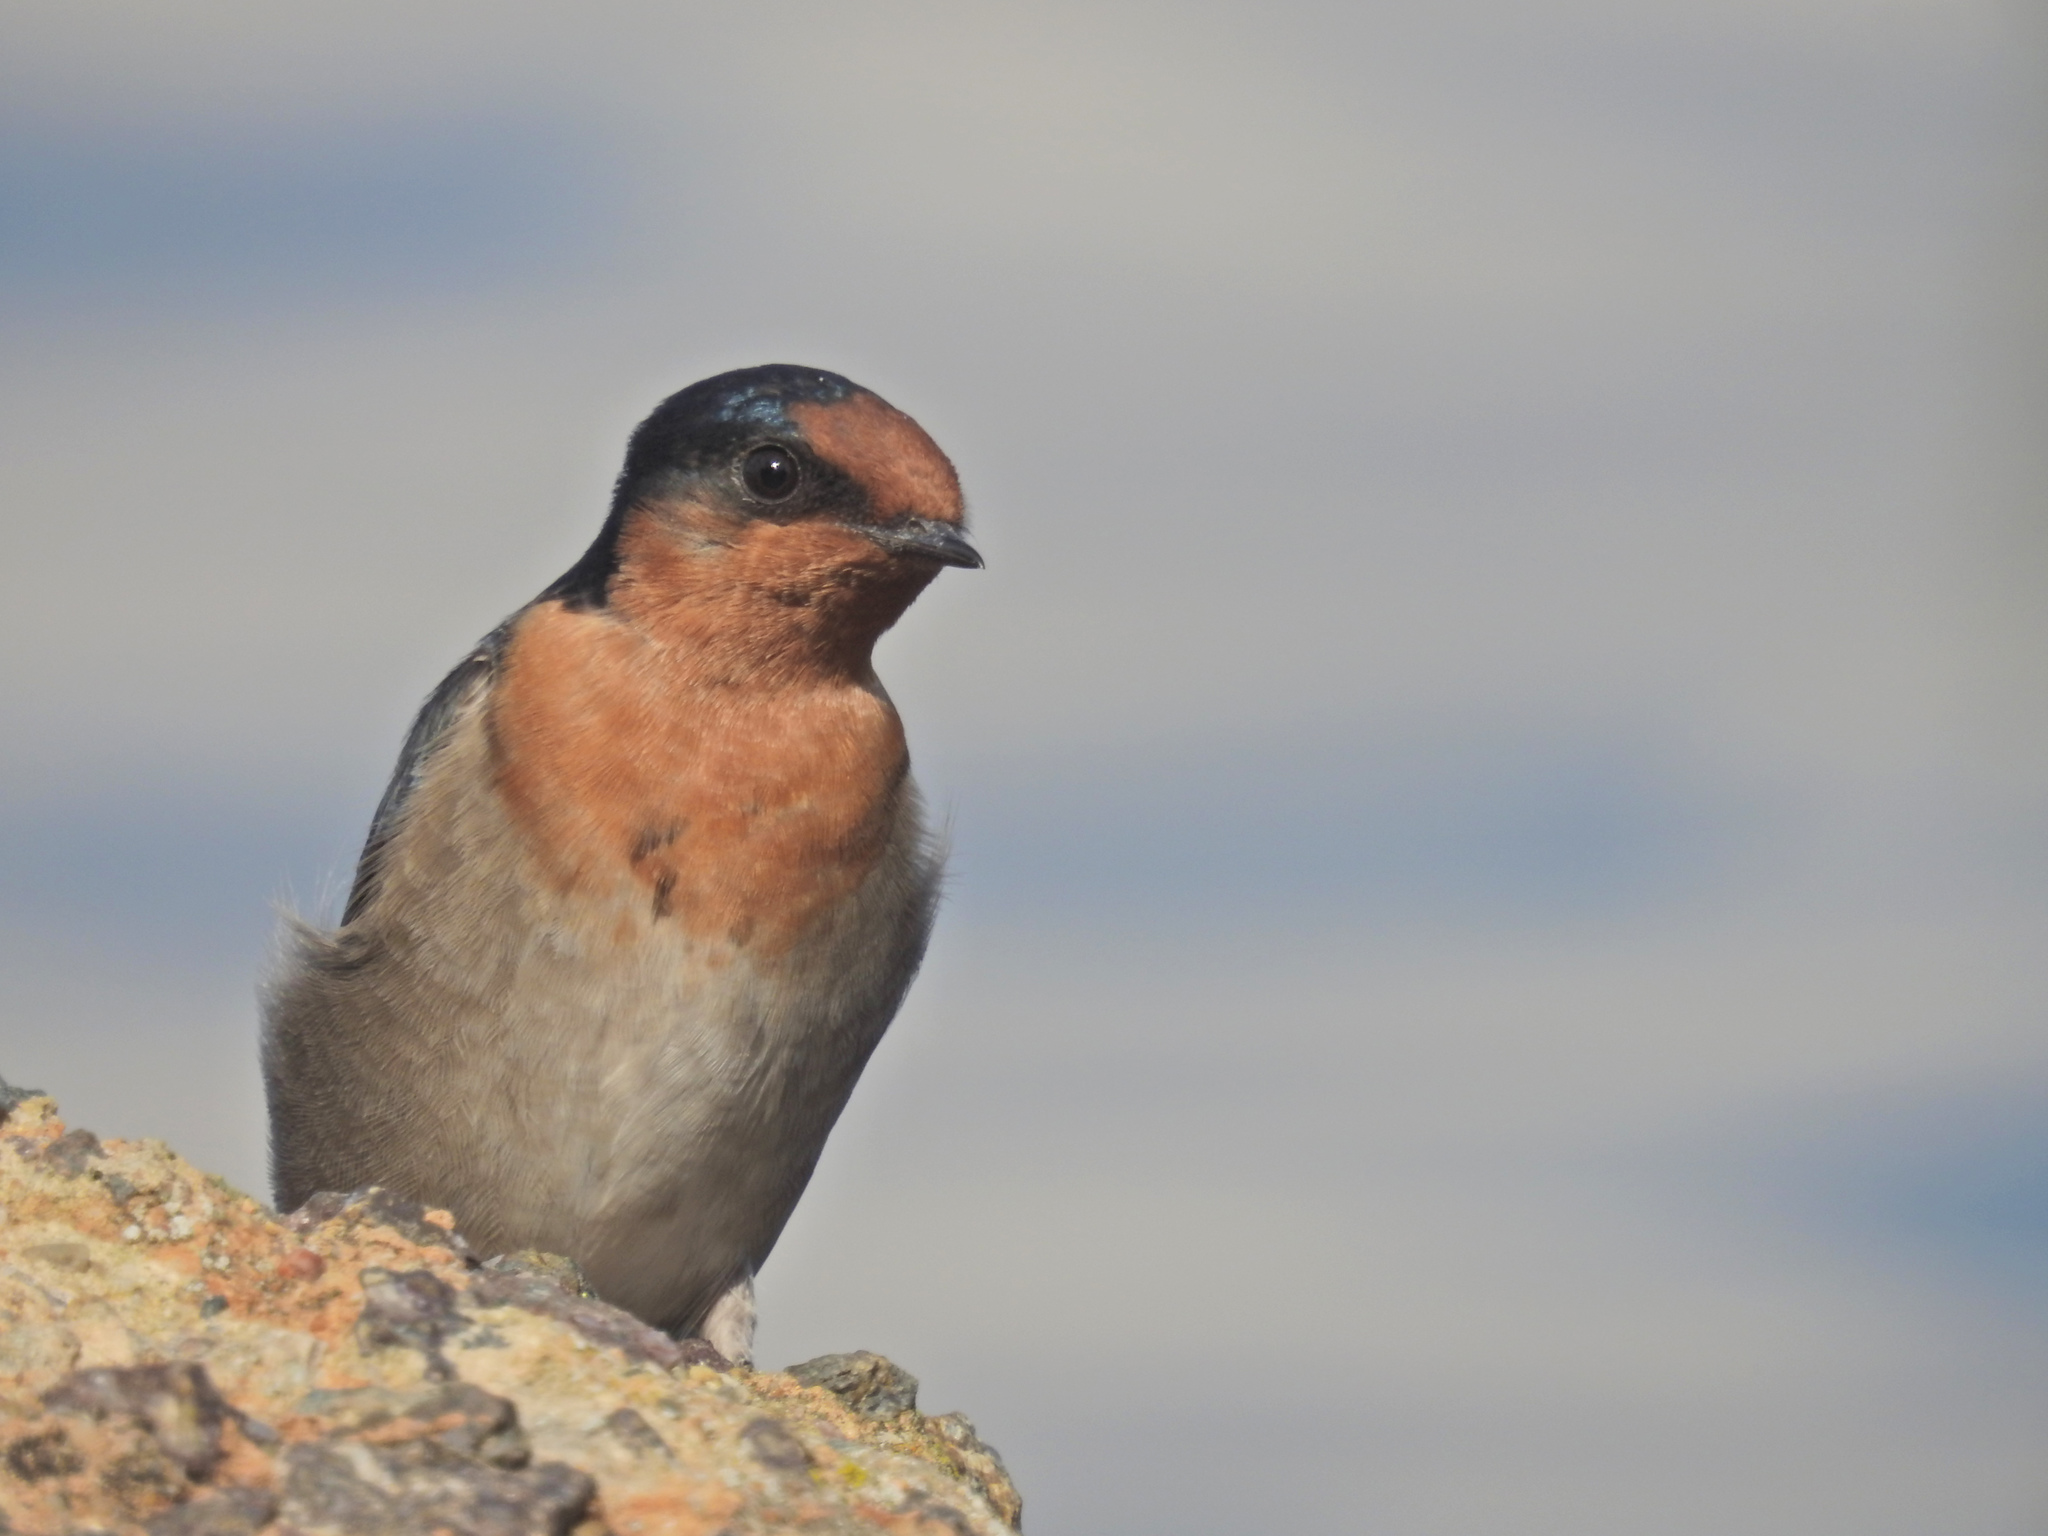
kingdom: Animalia
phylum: Chordata
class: Aves
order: Passeriformes
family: Hirundinidae
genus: Hirundo
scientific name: Hirundo neoxena
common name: Welcome swallow
